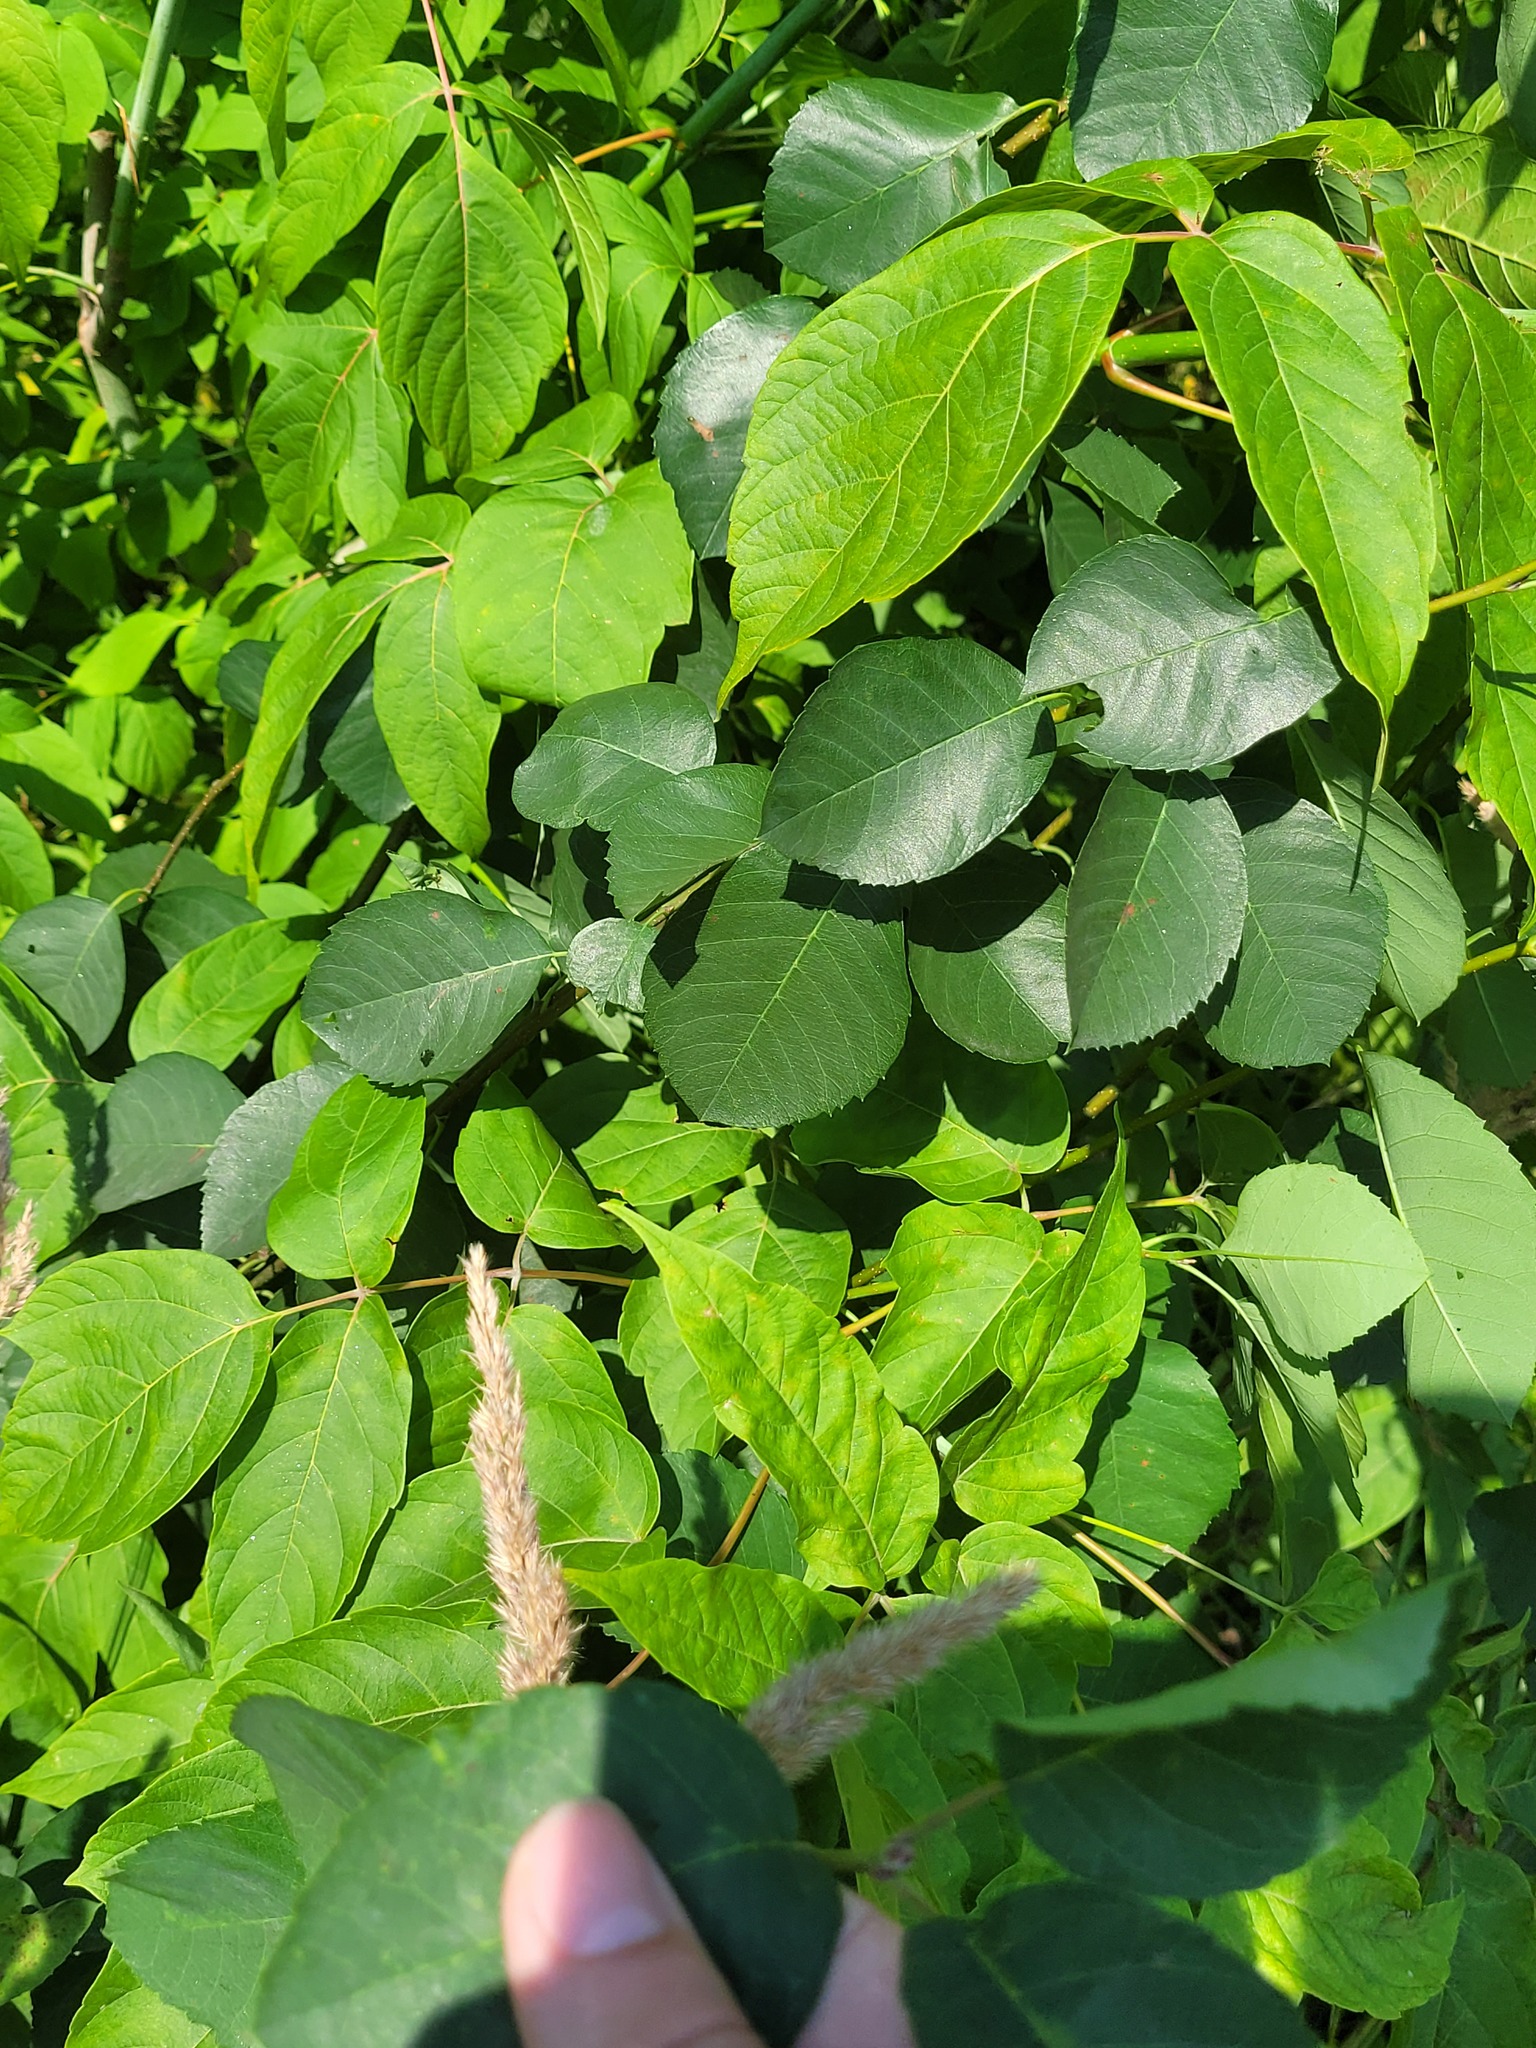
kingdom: Plantae
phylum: Tracheophyta
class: Magnoliopsida
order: Rosales
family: Rosaceae
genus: Amelanchier
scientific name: Amelanchier
